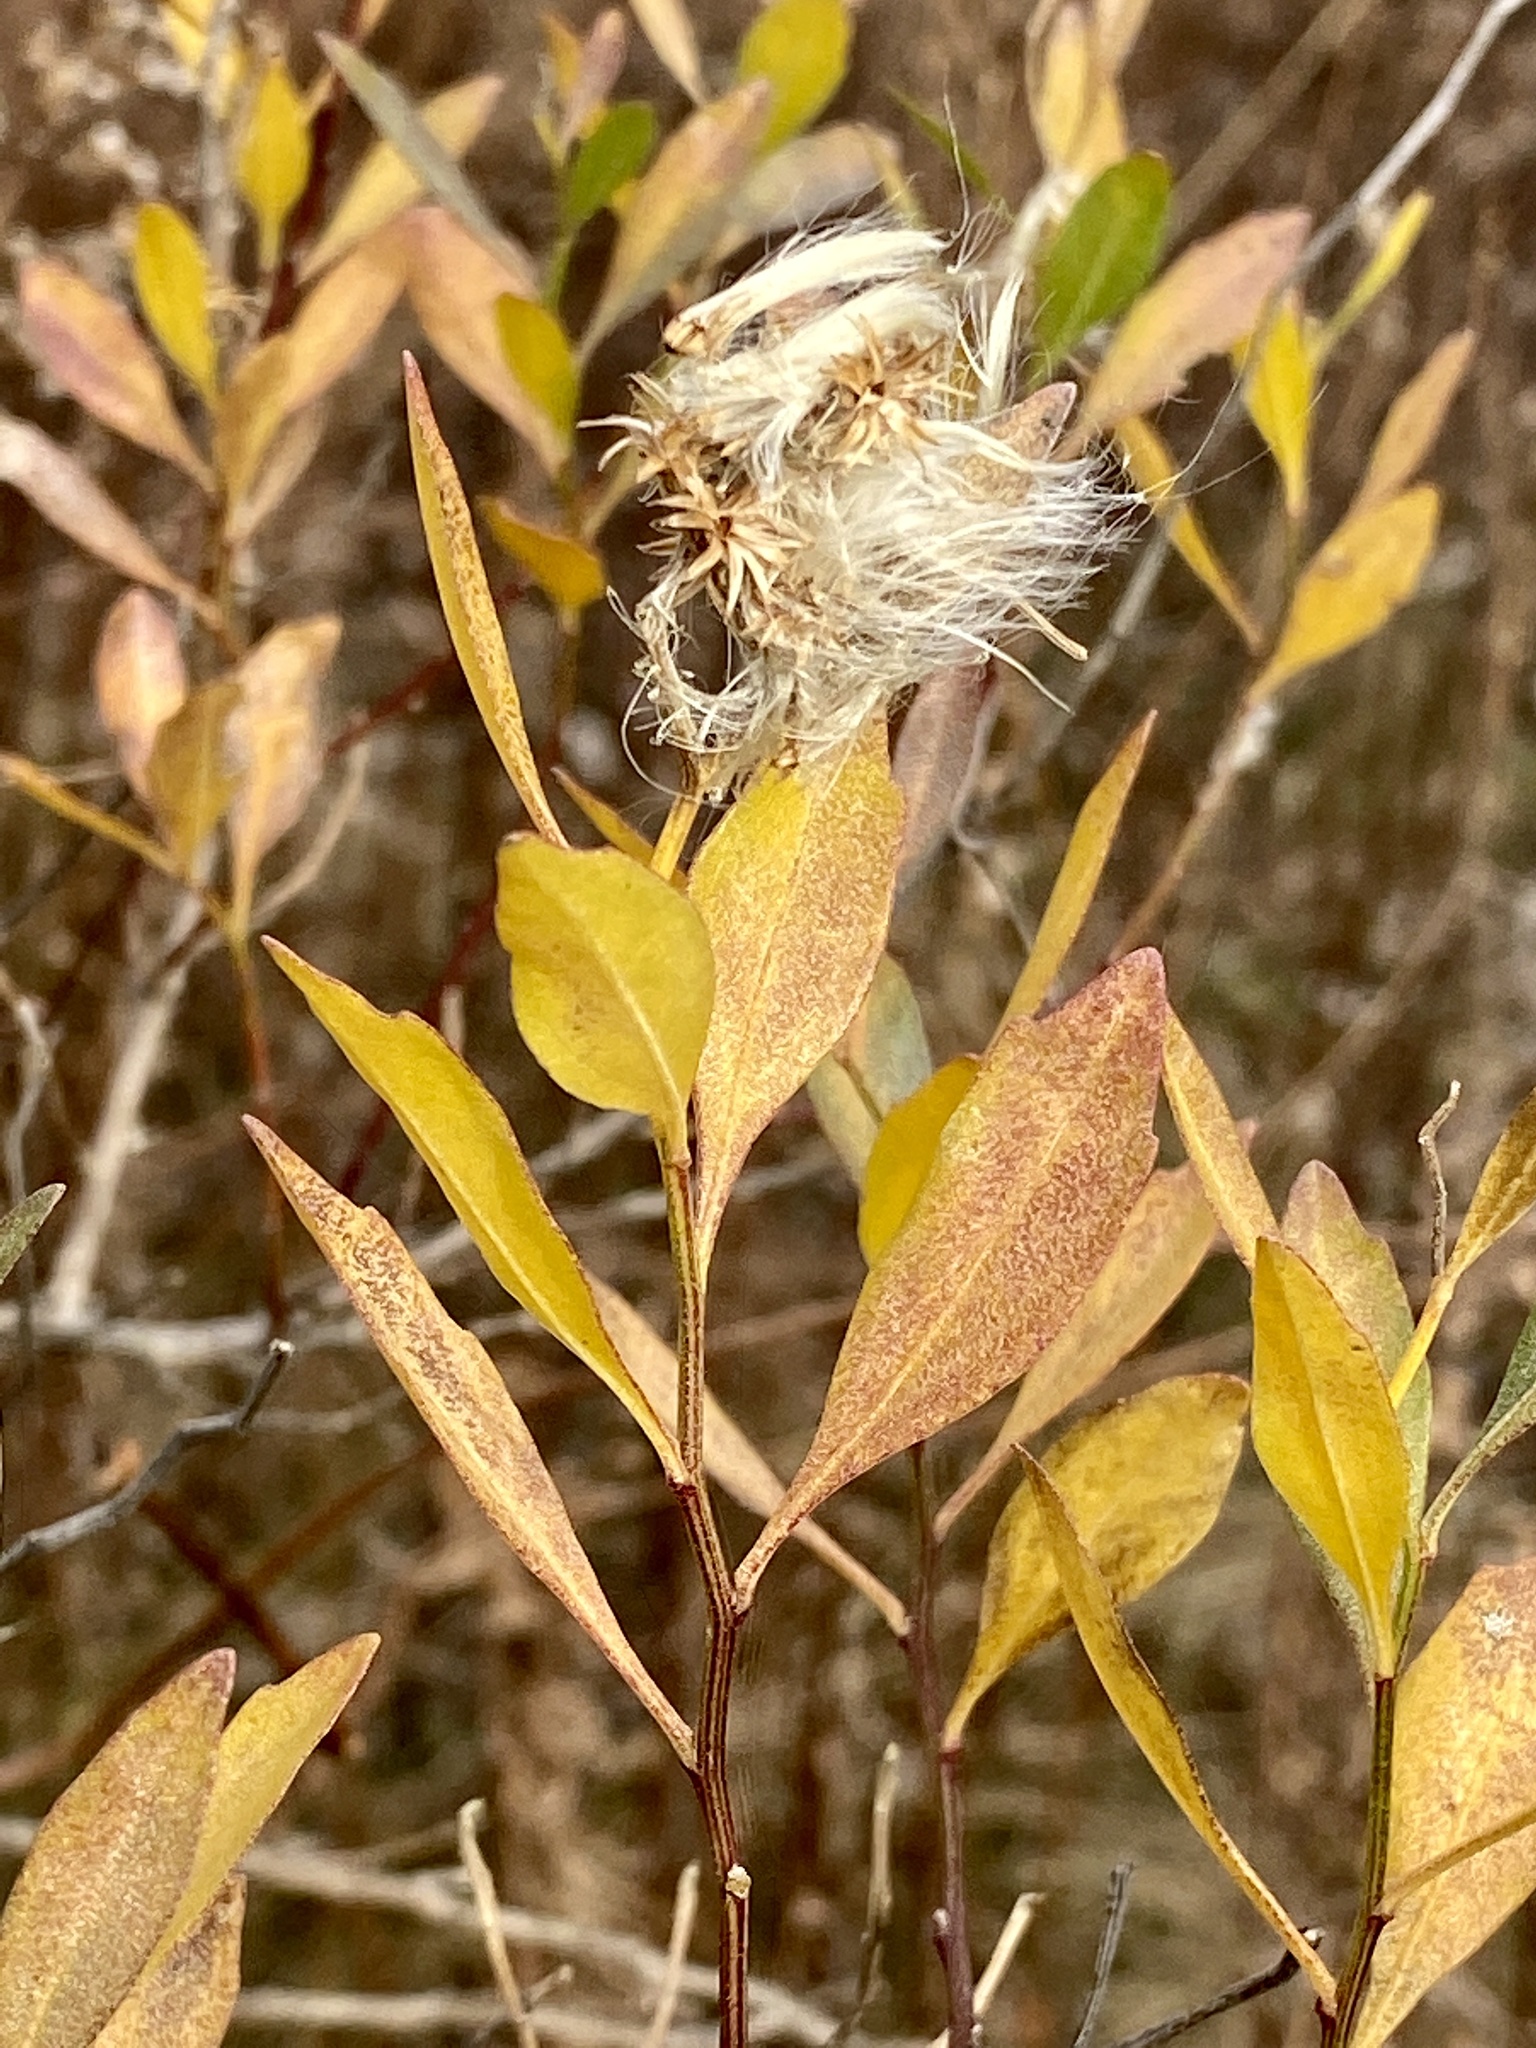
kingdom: Plantae
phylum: Tracheophyta
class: Magnoliopsida
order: Asterales
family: Asteraceae
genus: Baccharis
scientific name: Baccharis halimifolia
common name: Eastern baccharis
